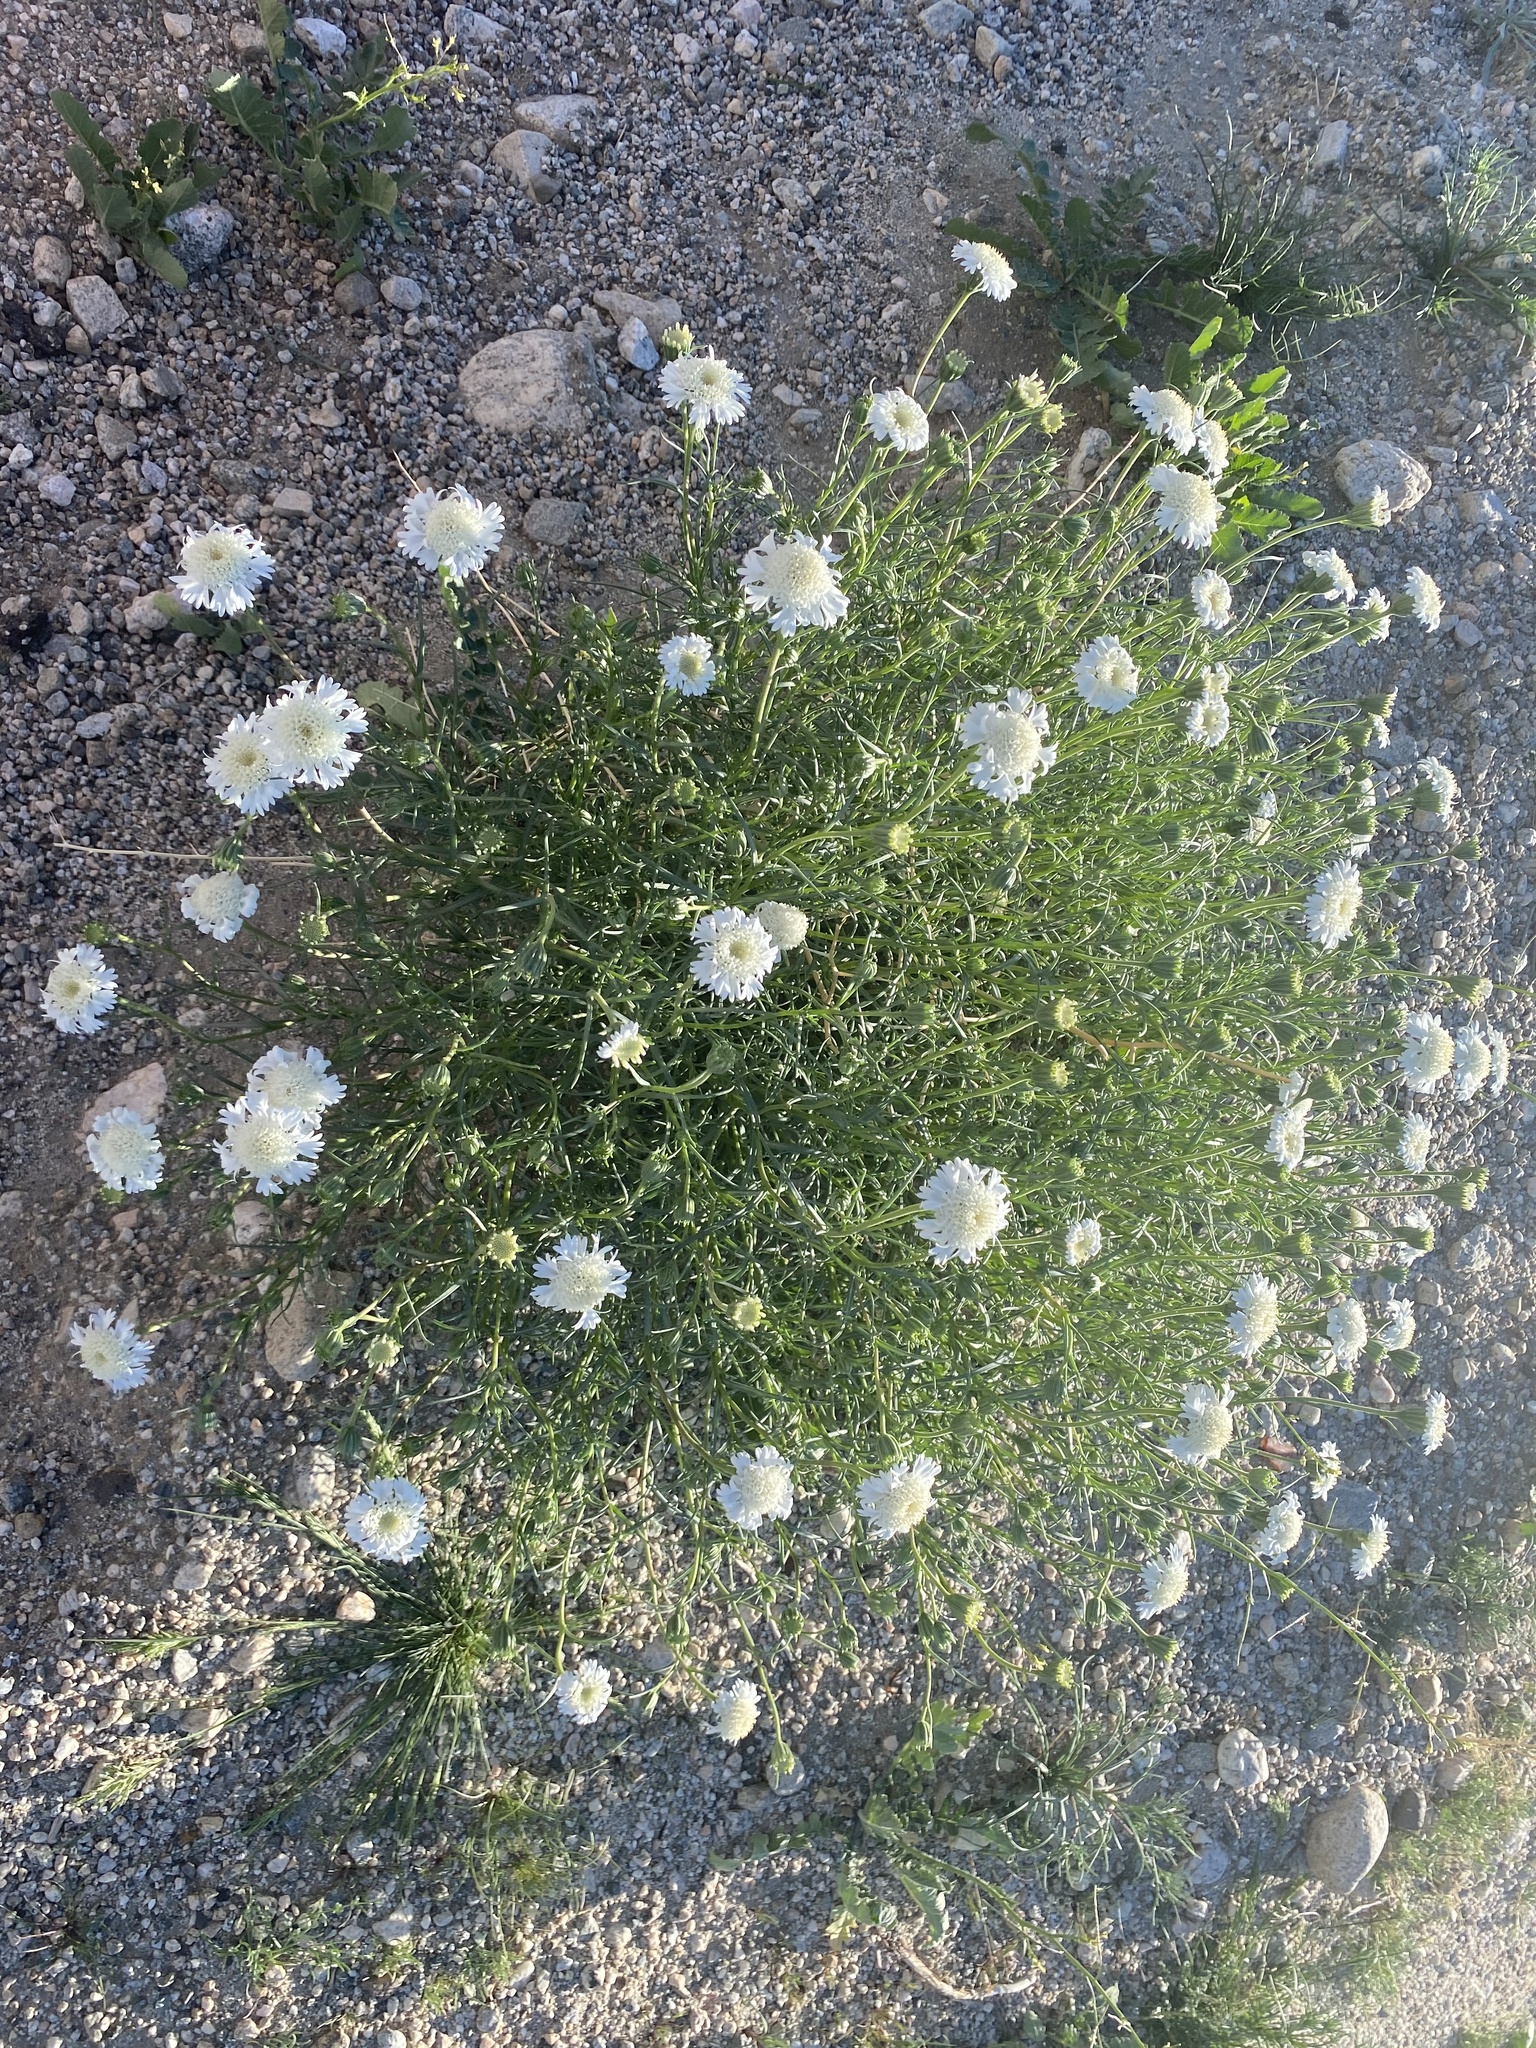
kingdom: Plantae
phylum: Tracheophyta
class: Magnoliopsida
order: Asterales
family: Asteraceae
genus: Chaenactis
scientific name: Chaenactis fremontii
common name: Fremont pincushion
